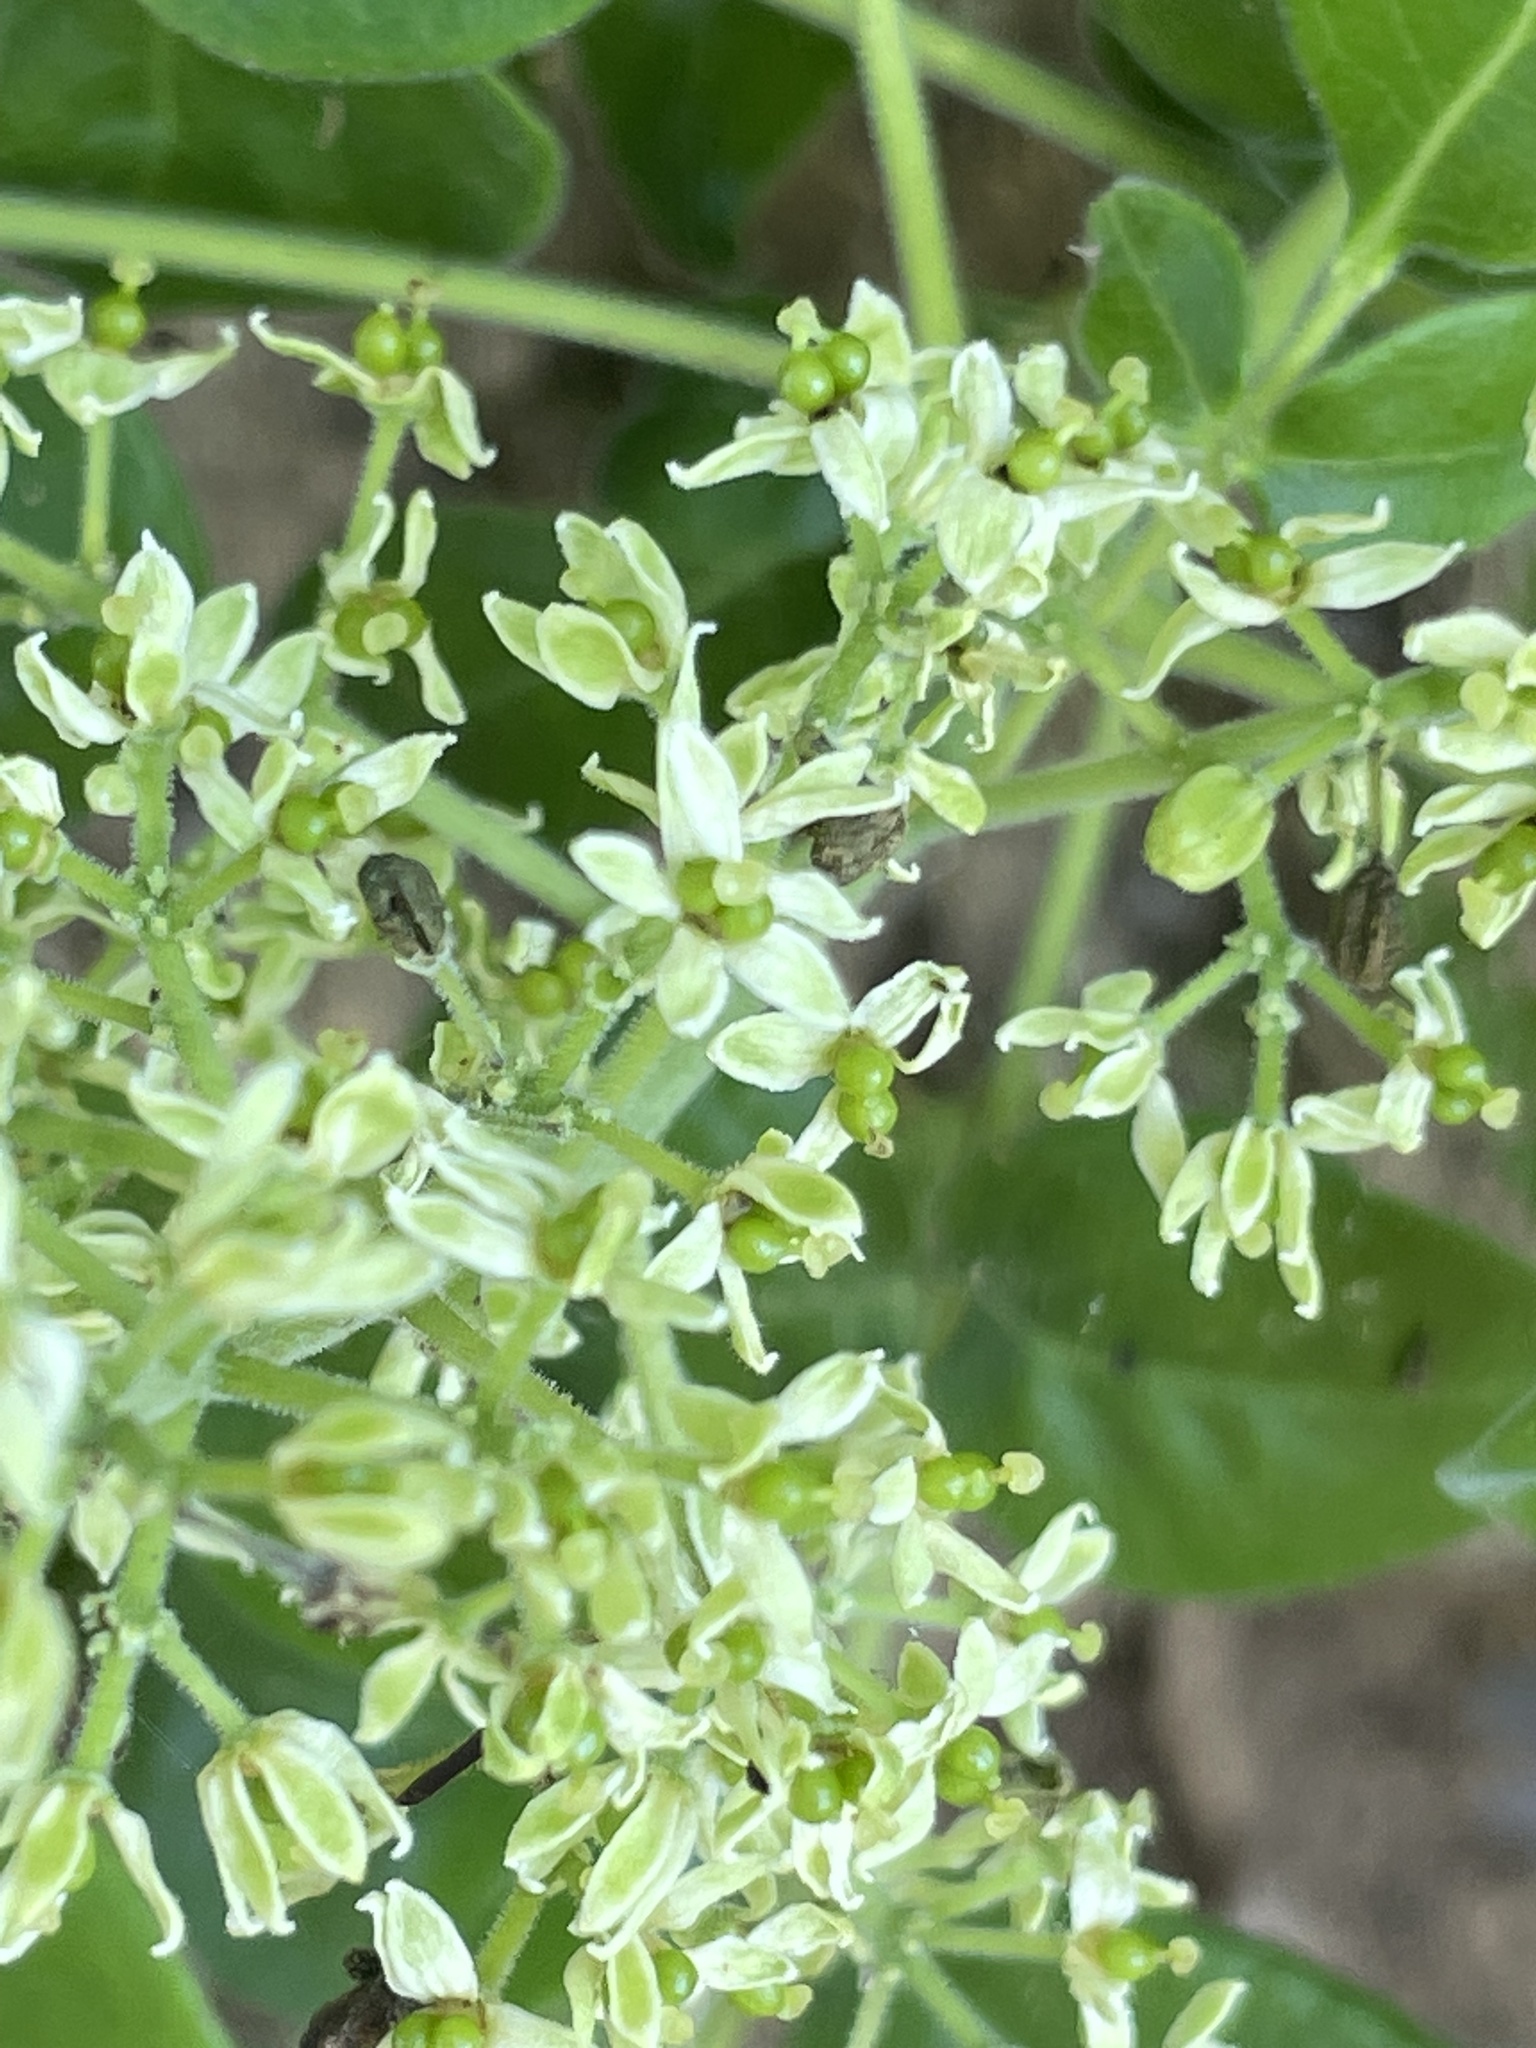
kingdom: Plantae
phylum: Tracheophyta
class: Magnoliopsida
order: Sapindales
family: Rutaceae
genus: Zanthoxylum
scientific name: Zanthoxylum arborescens
